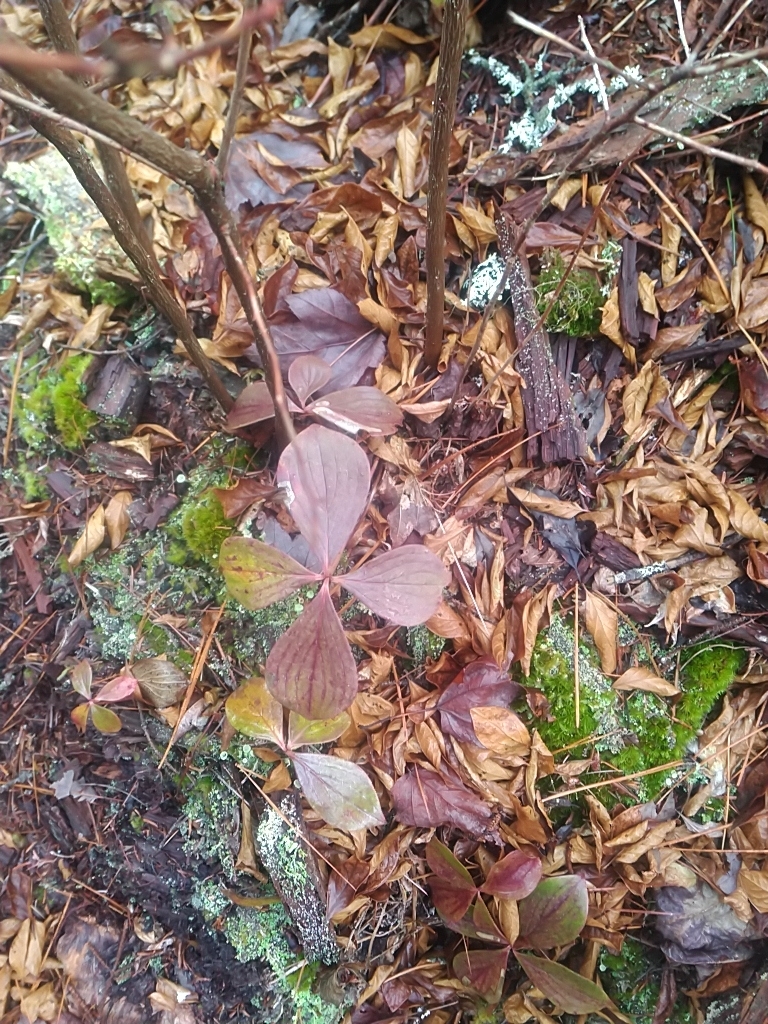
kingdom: Plantae
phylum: Tracheophyta
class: Magnoliopsida
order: Cornales
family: Cornaceae
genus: Cornus
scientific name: Cornus canadensis
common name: Creeping dogwood
